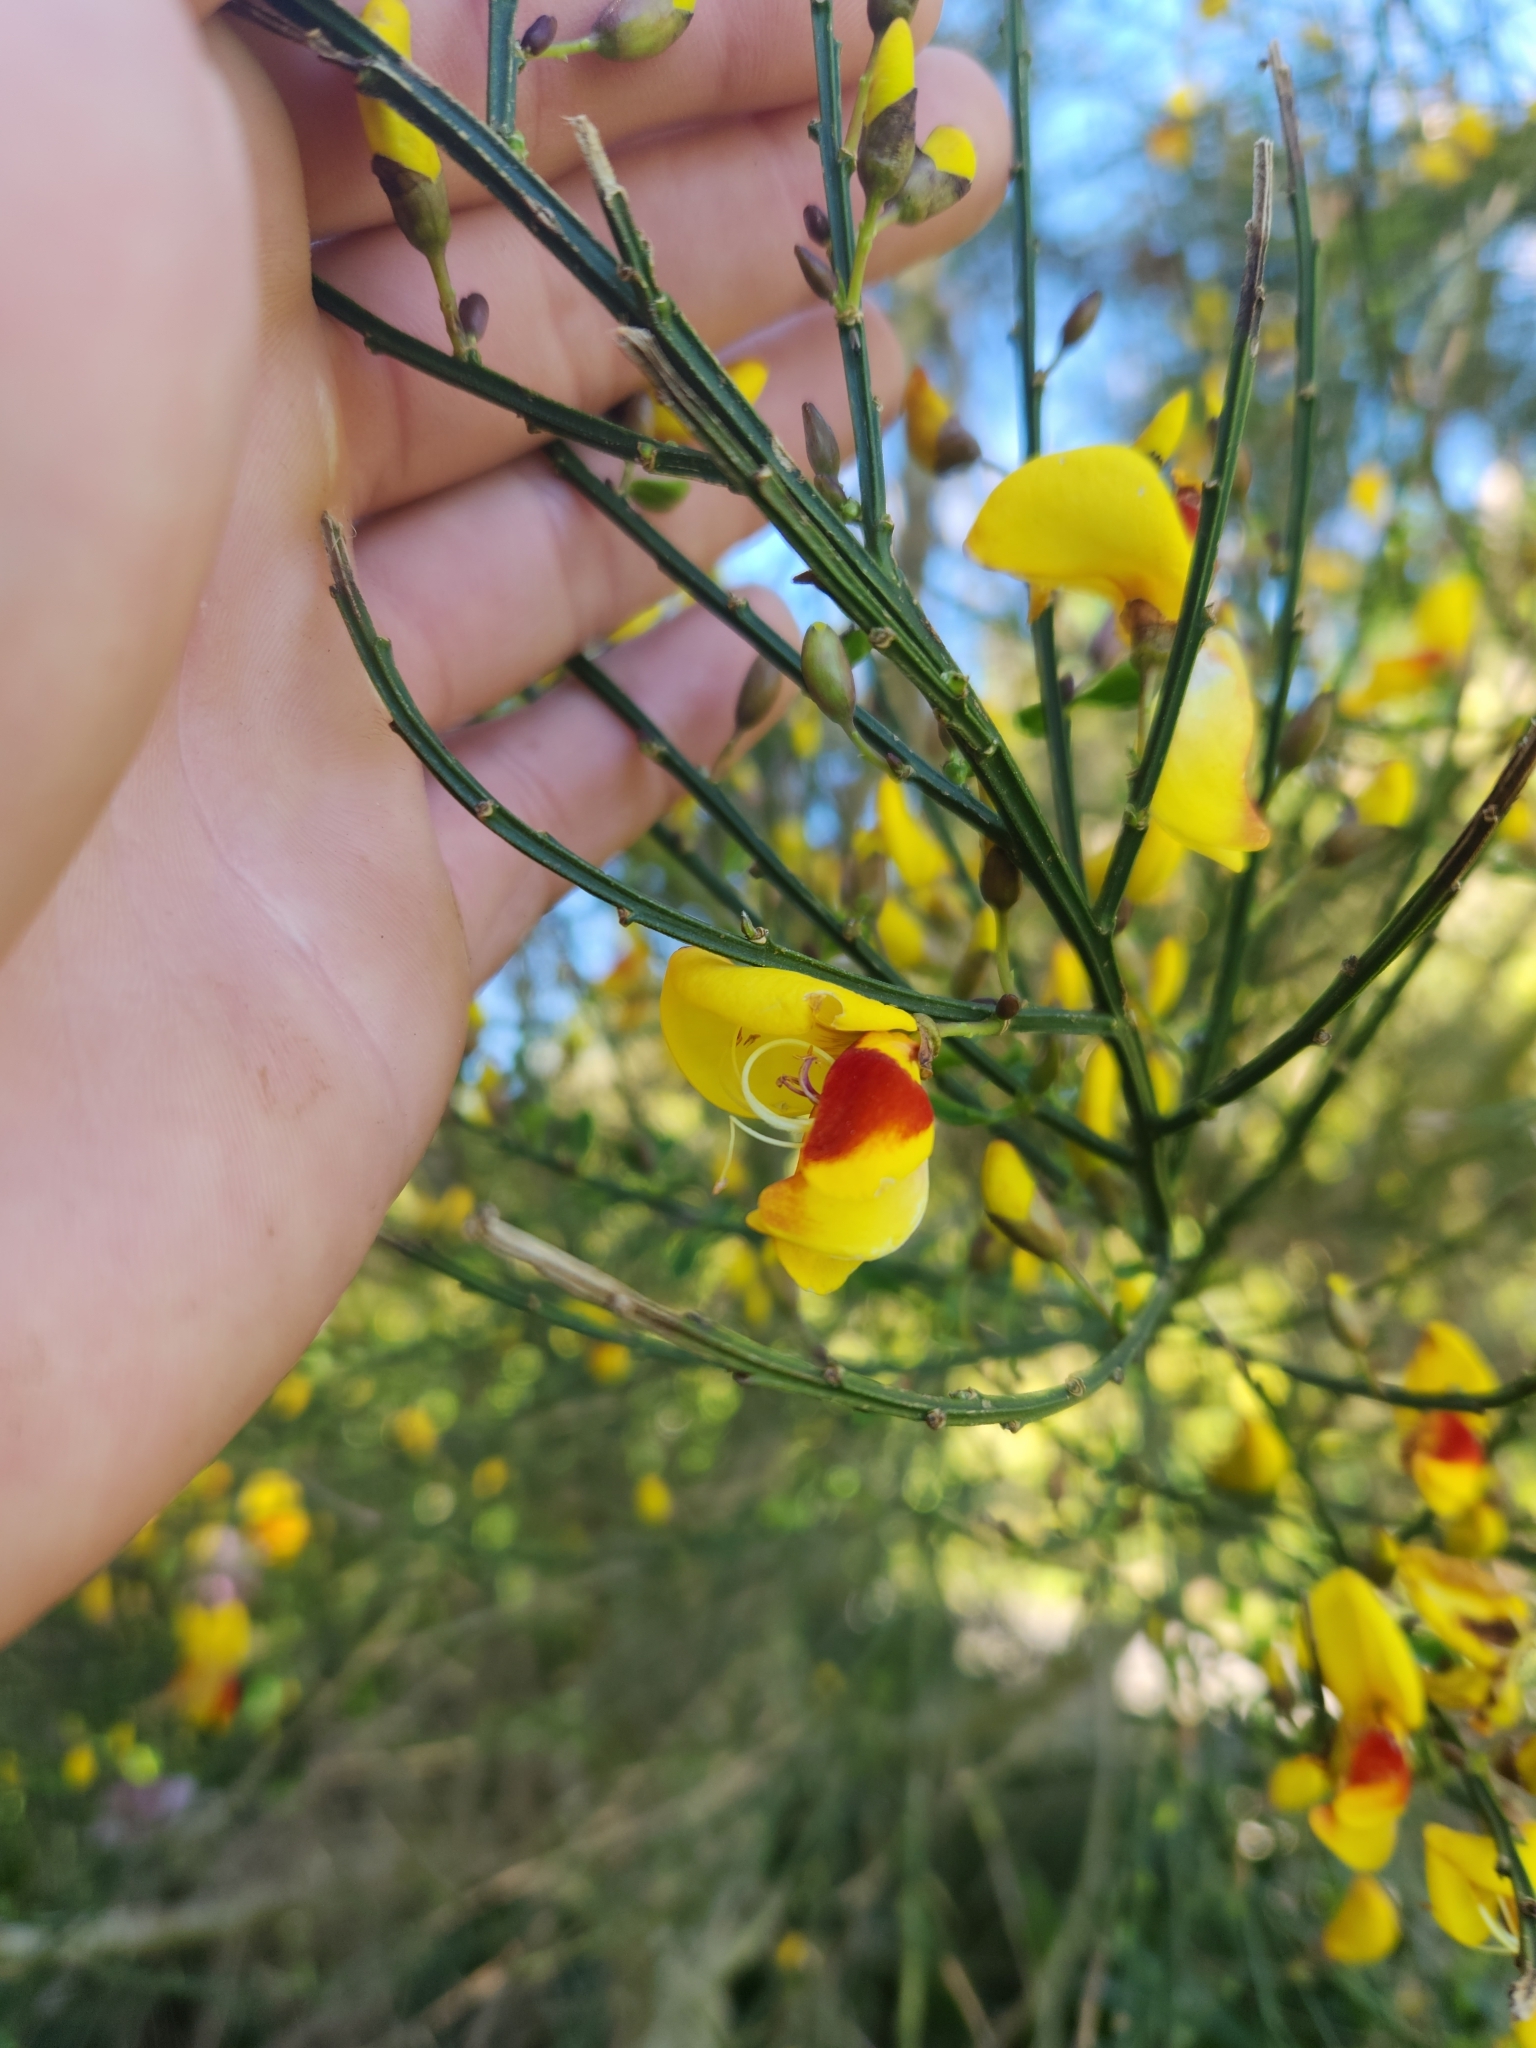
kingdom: Plantae
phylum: Tracheophyta
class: Magnoliopsida
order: Fabales
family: Fabaceae
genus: Cytisus
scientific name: Cytisus scoparius
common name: Scotch broom
